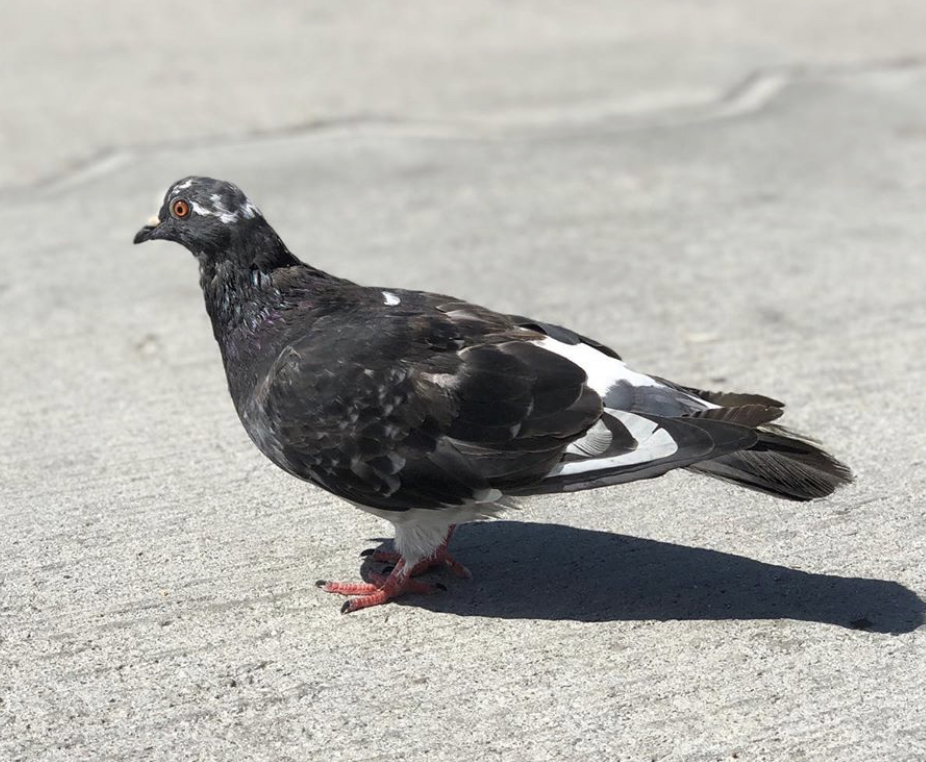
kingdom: Animalia
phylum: Chordata
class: Aves
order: Columbiformes
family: Columbidae
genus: Columba
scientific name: Columba livia
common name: Rock pigeon
